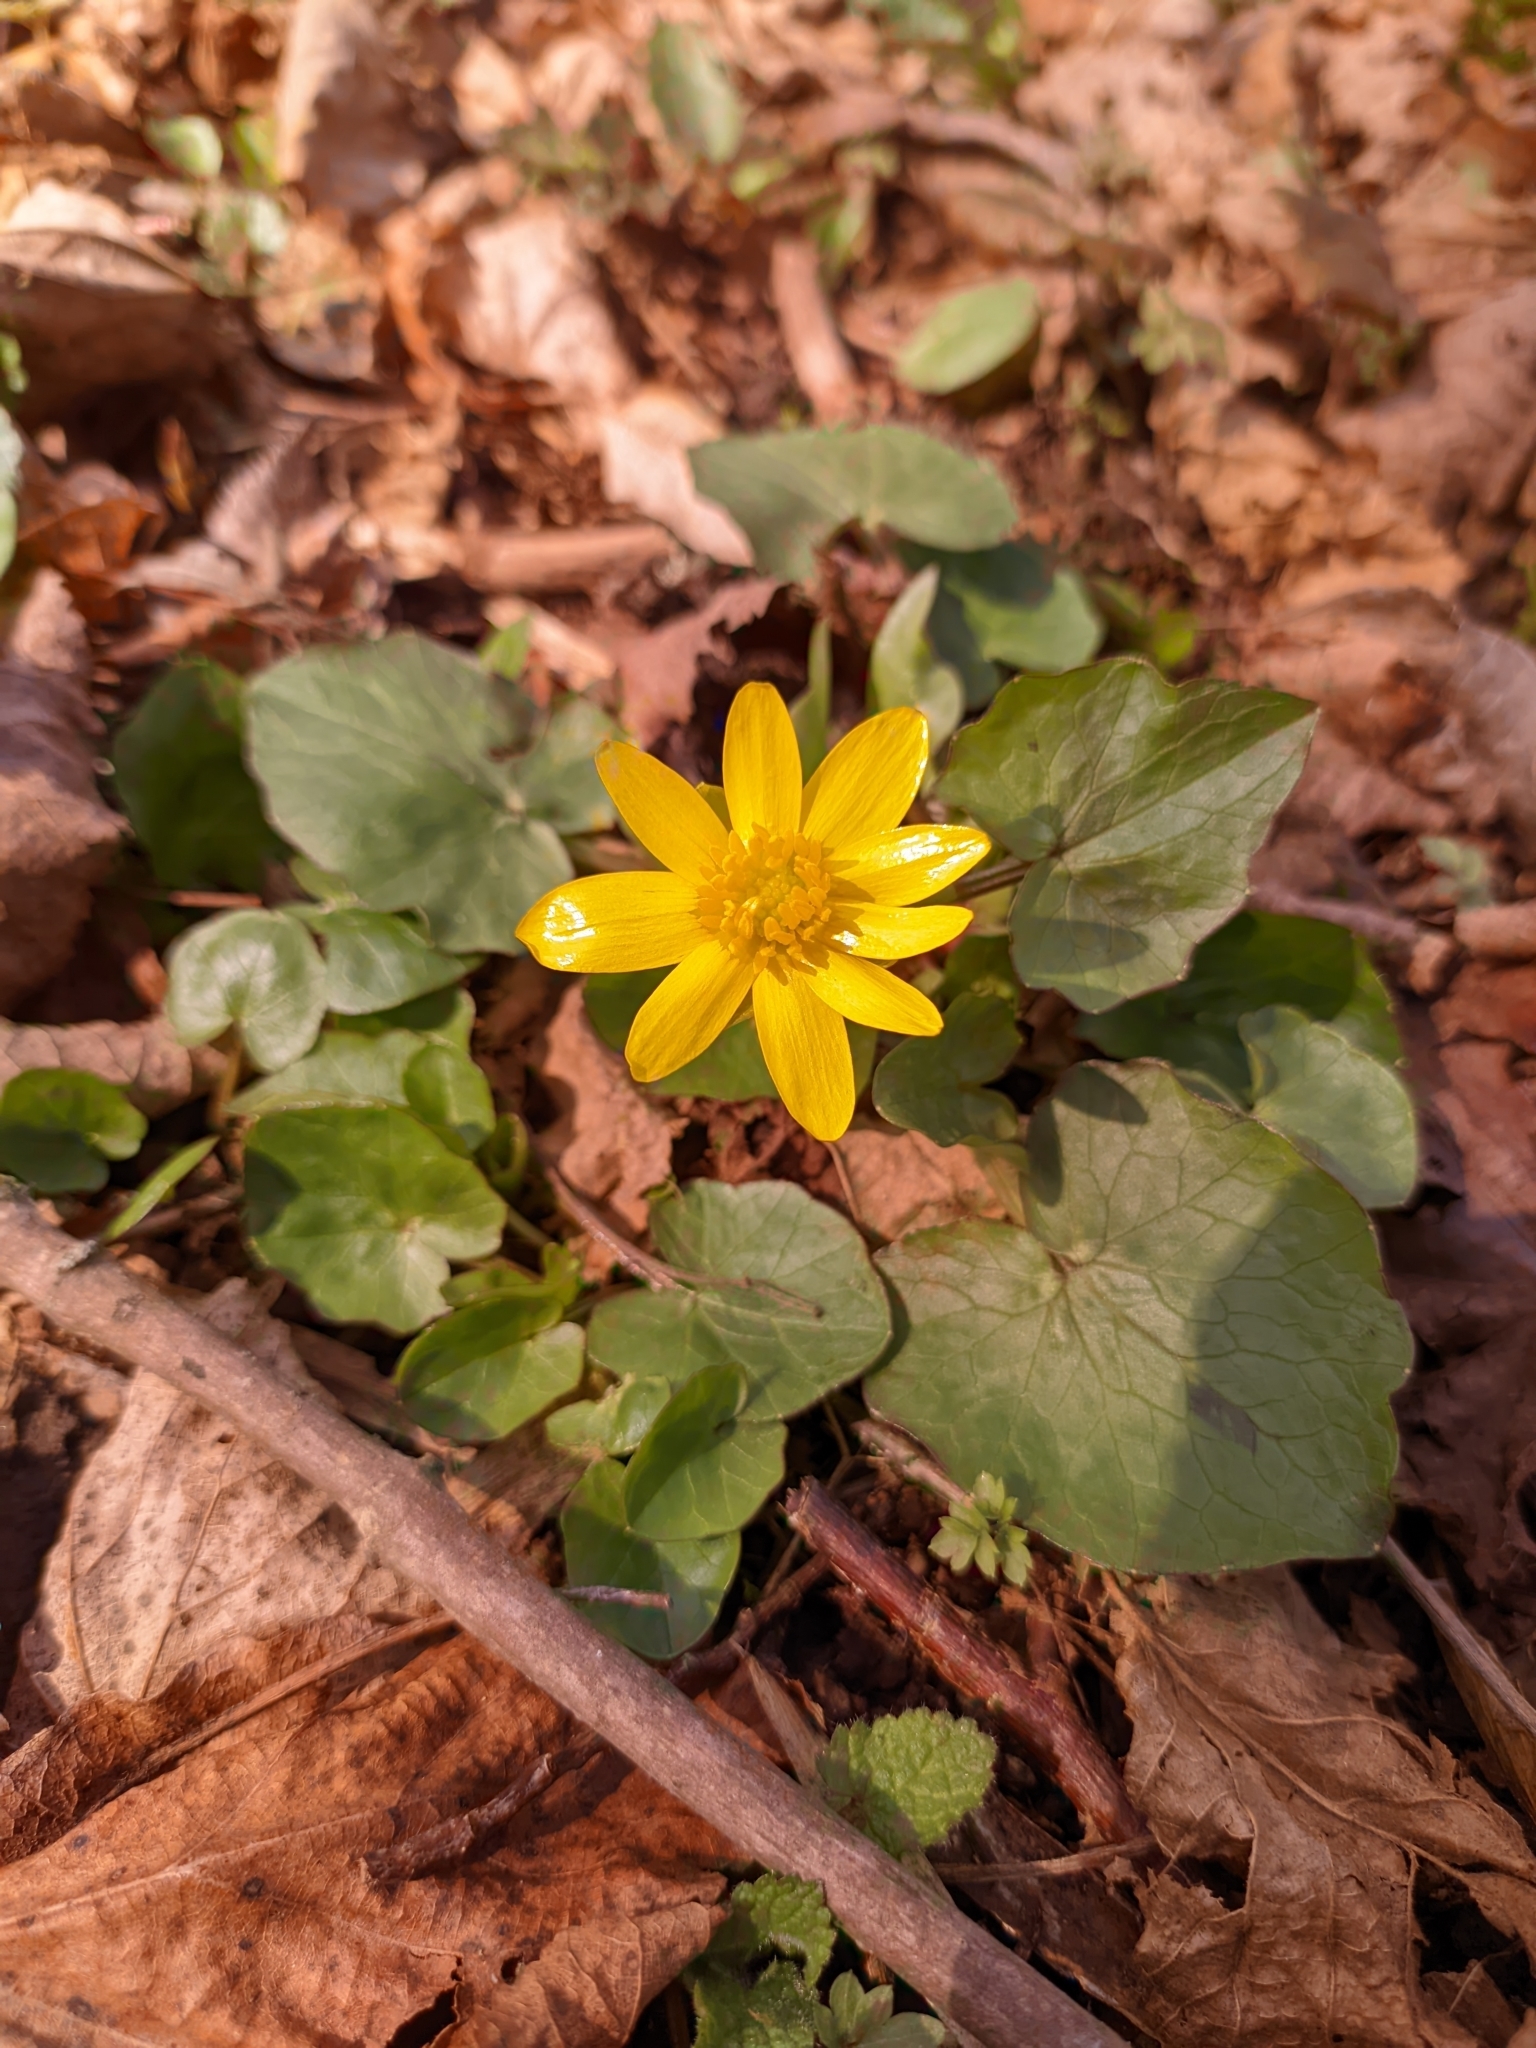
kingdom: Plantae
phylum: Tracheophyta
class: Magnoliopsida
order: Ranunculales
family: Ranunculaceae
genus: Ficaria
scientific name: Ficaria verna
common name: Lesser celandine
